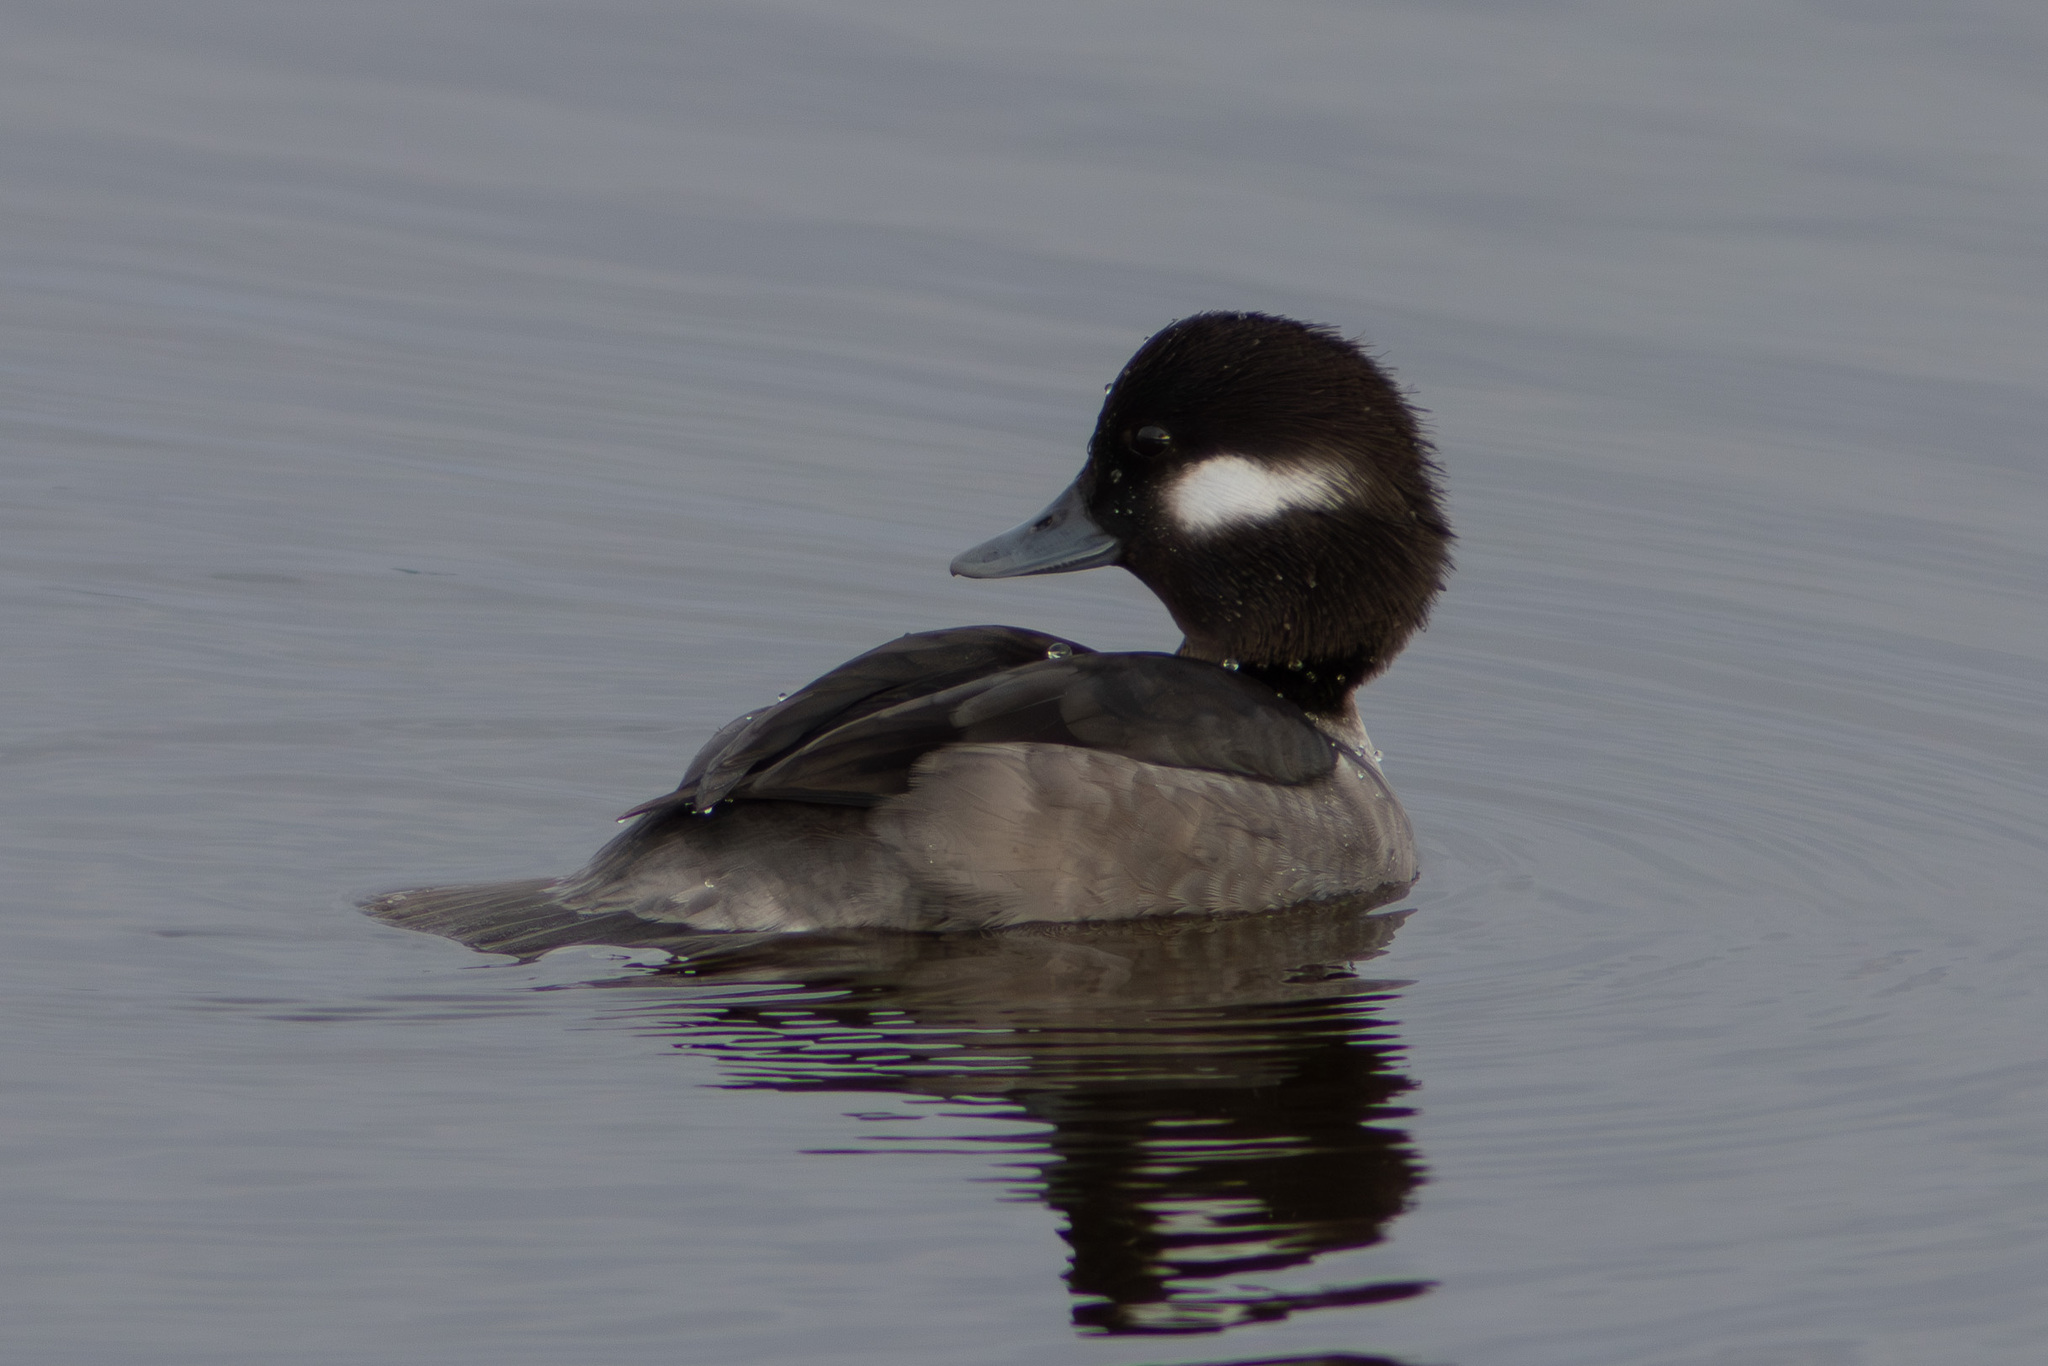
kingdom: Animalia
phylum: Chordata
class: Aves
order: Anseriformes
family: Anatidae
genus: Bucephala
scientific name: Bucephala albeola
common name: Bufflehead
